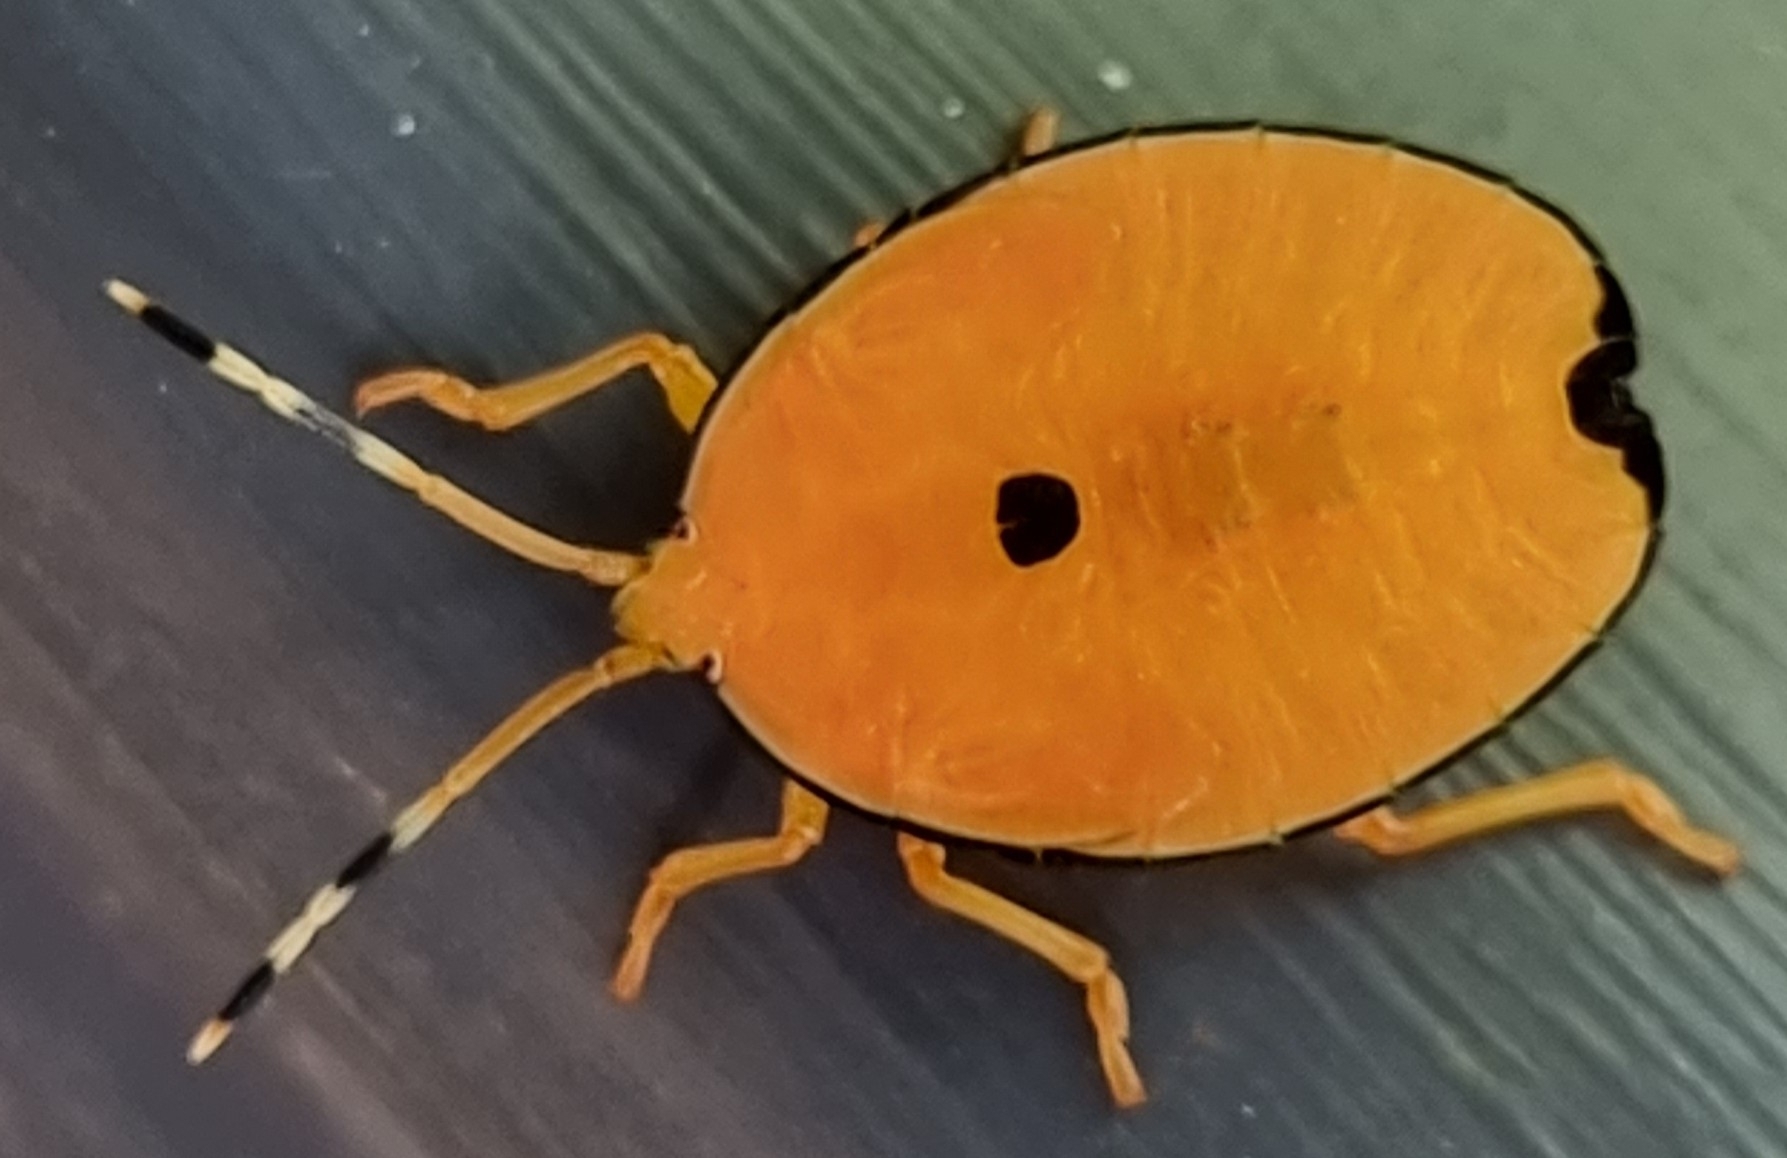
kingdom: Animalia
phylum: Arthropoda
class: Insecta
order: Hemiptera
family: Tessaratomidae
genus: Musgraveia
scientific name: Musgraveia sulciventris
